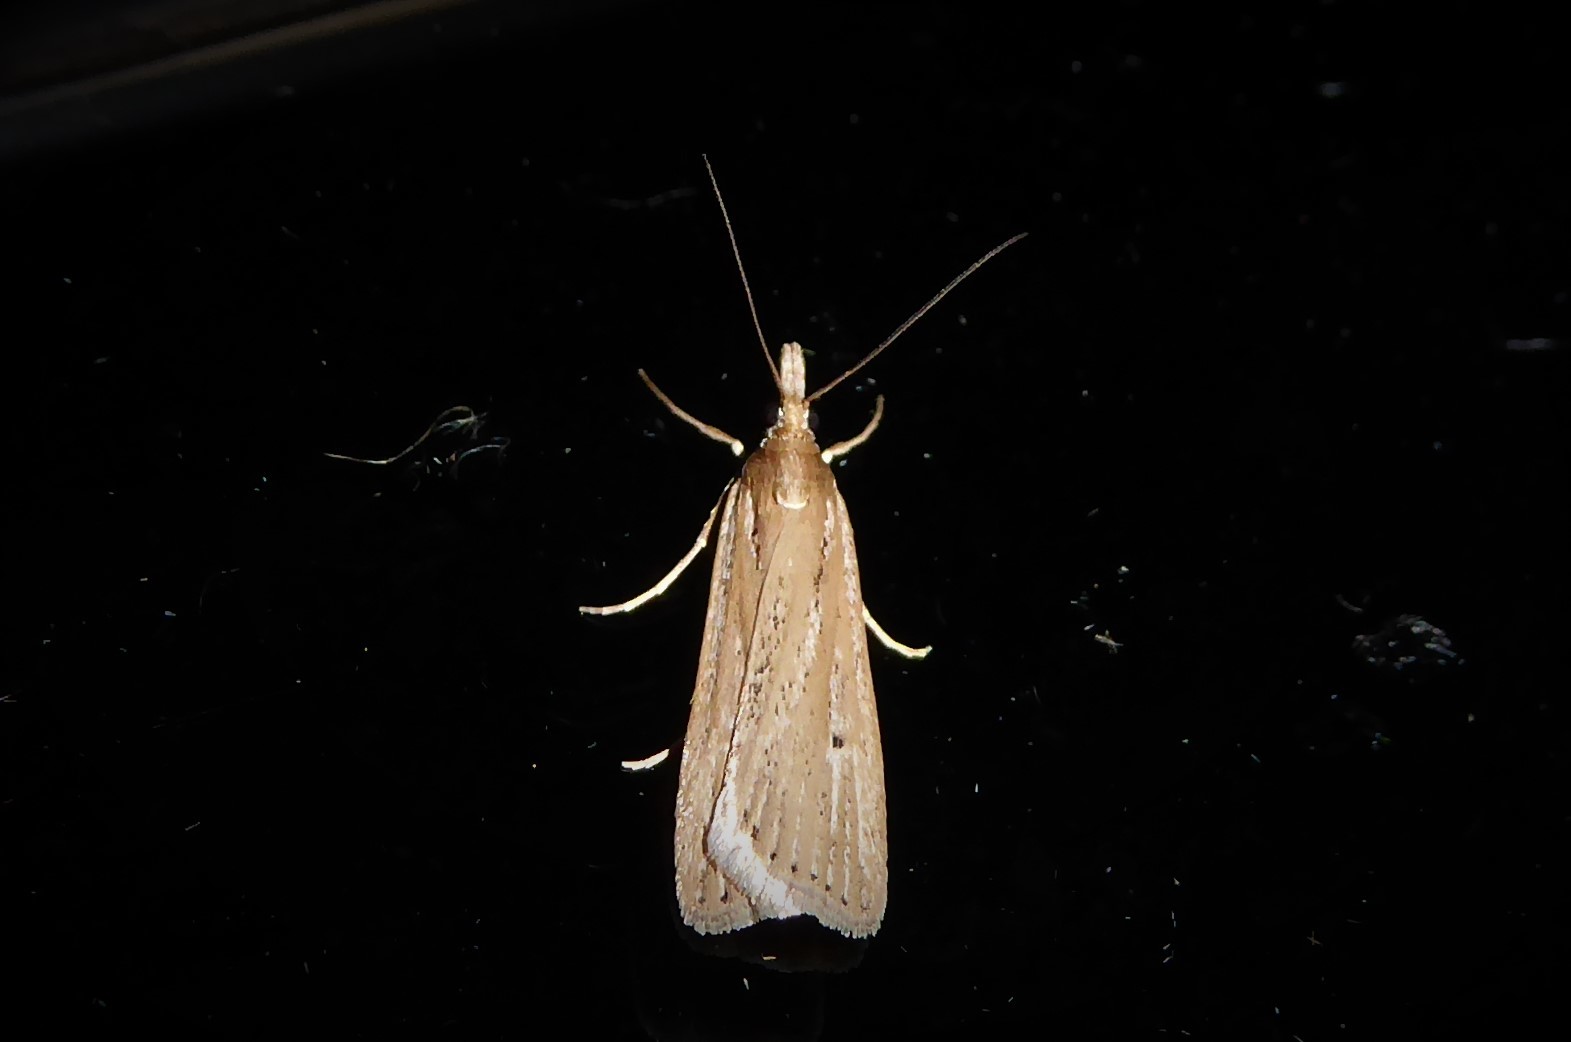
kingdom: Animalia
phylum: Arthropoda
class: Insecta
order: Lepidoptera
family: Crambidae
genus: Eudonia
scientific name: Eudonia sabulosella
